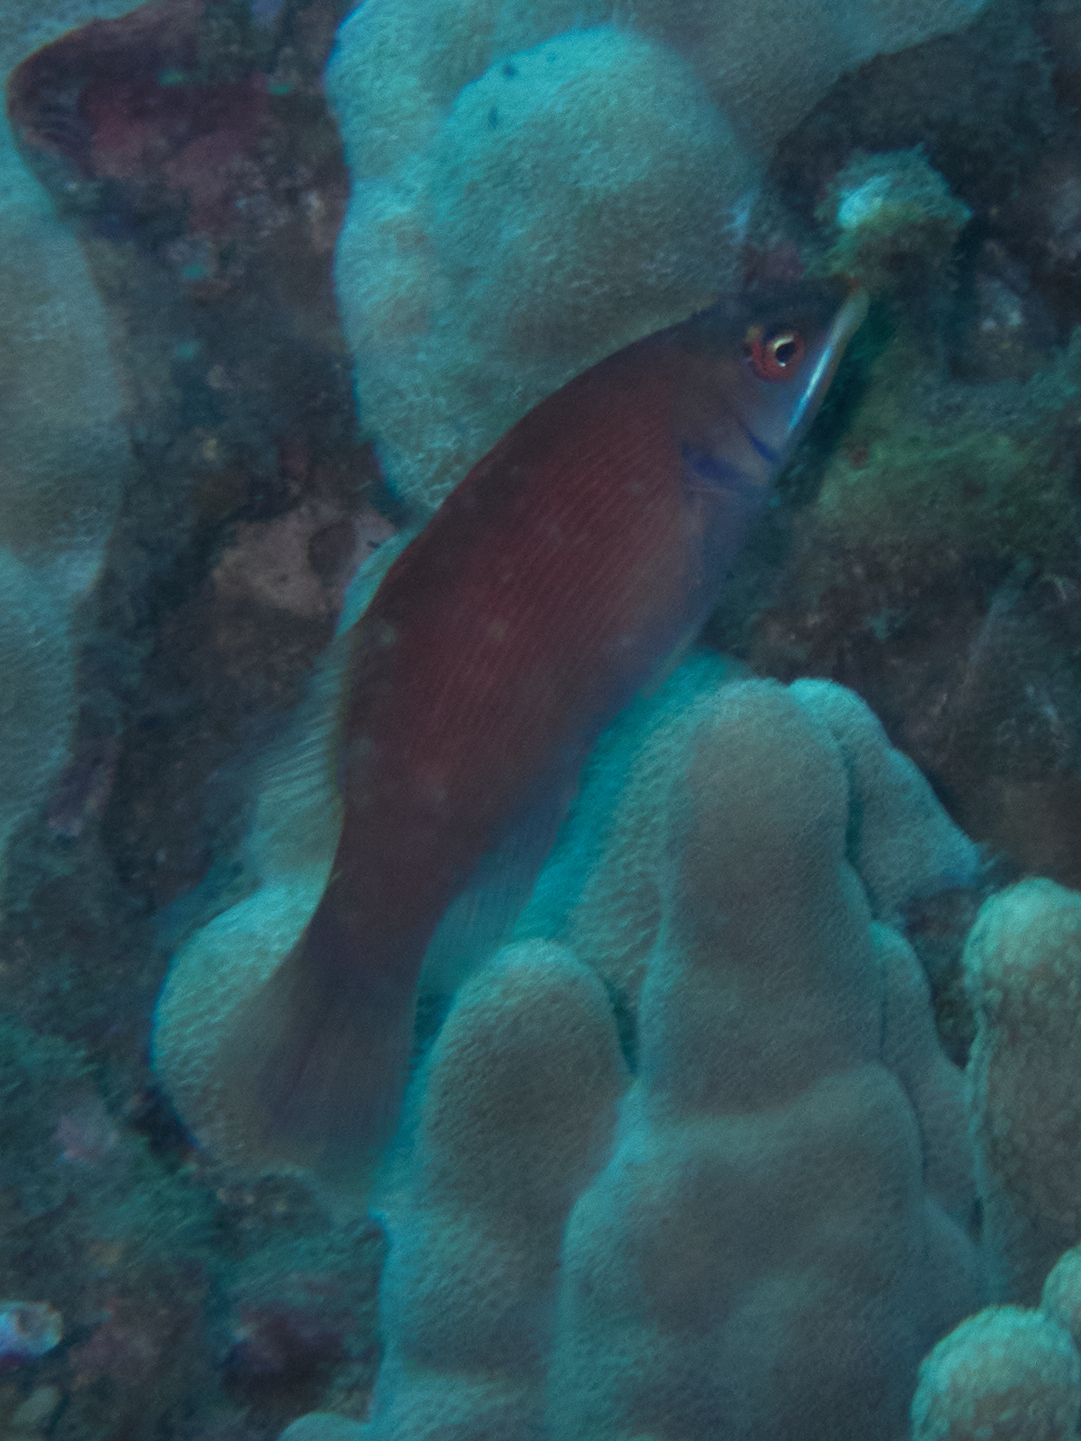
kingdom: Animalia
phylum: Chordata
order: Perciformes
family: Labridae
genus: Pseudocheilinus
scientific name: Pseudocheilinus evanidus
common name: Disappearing wrasse
